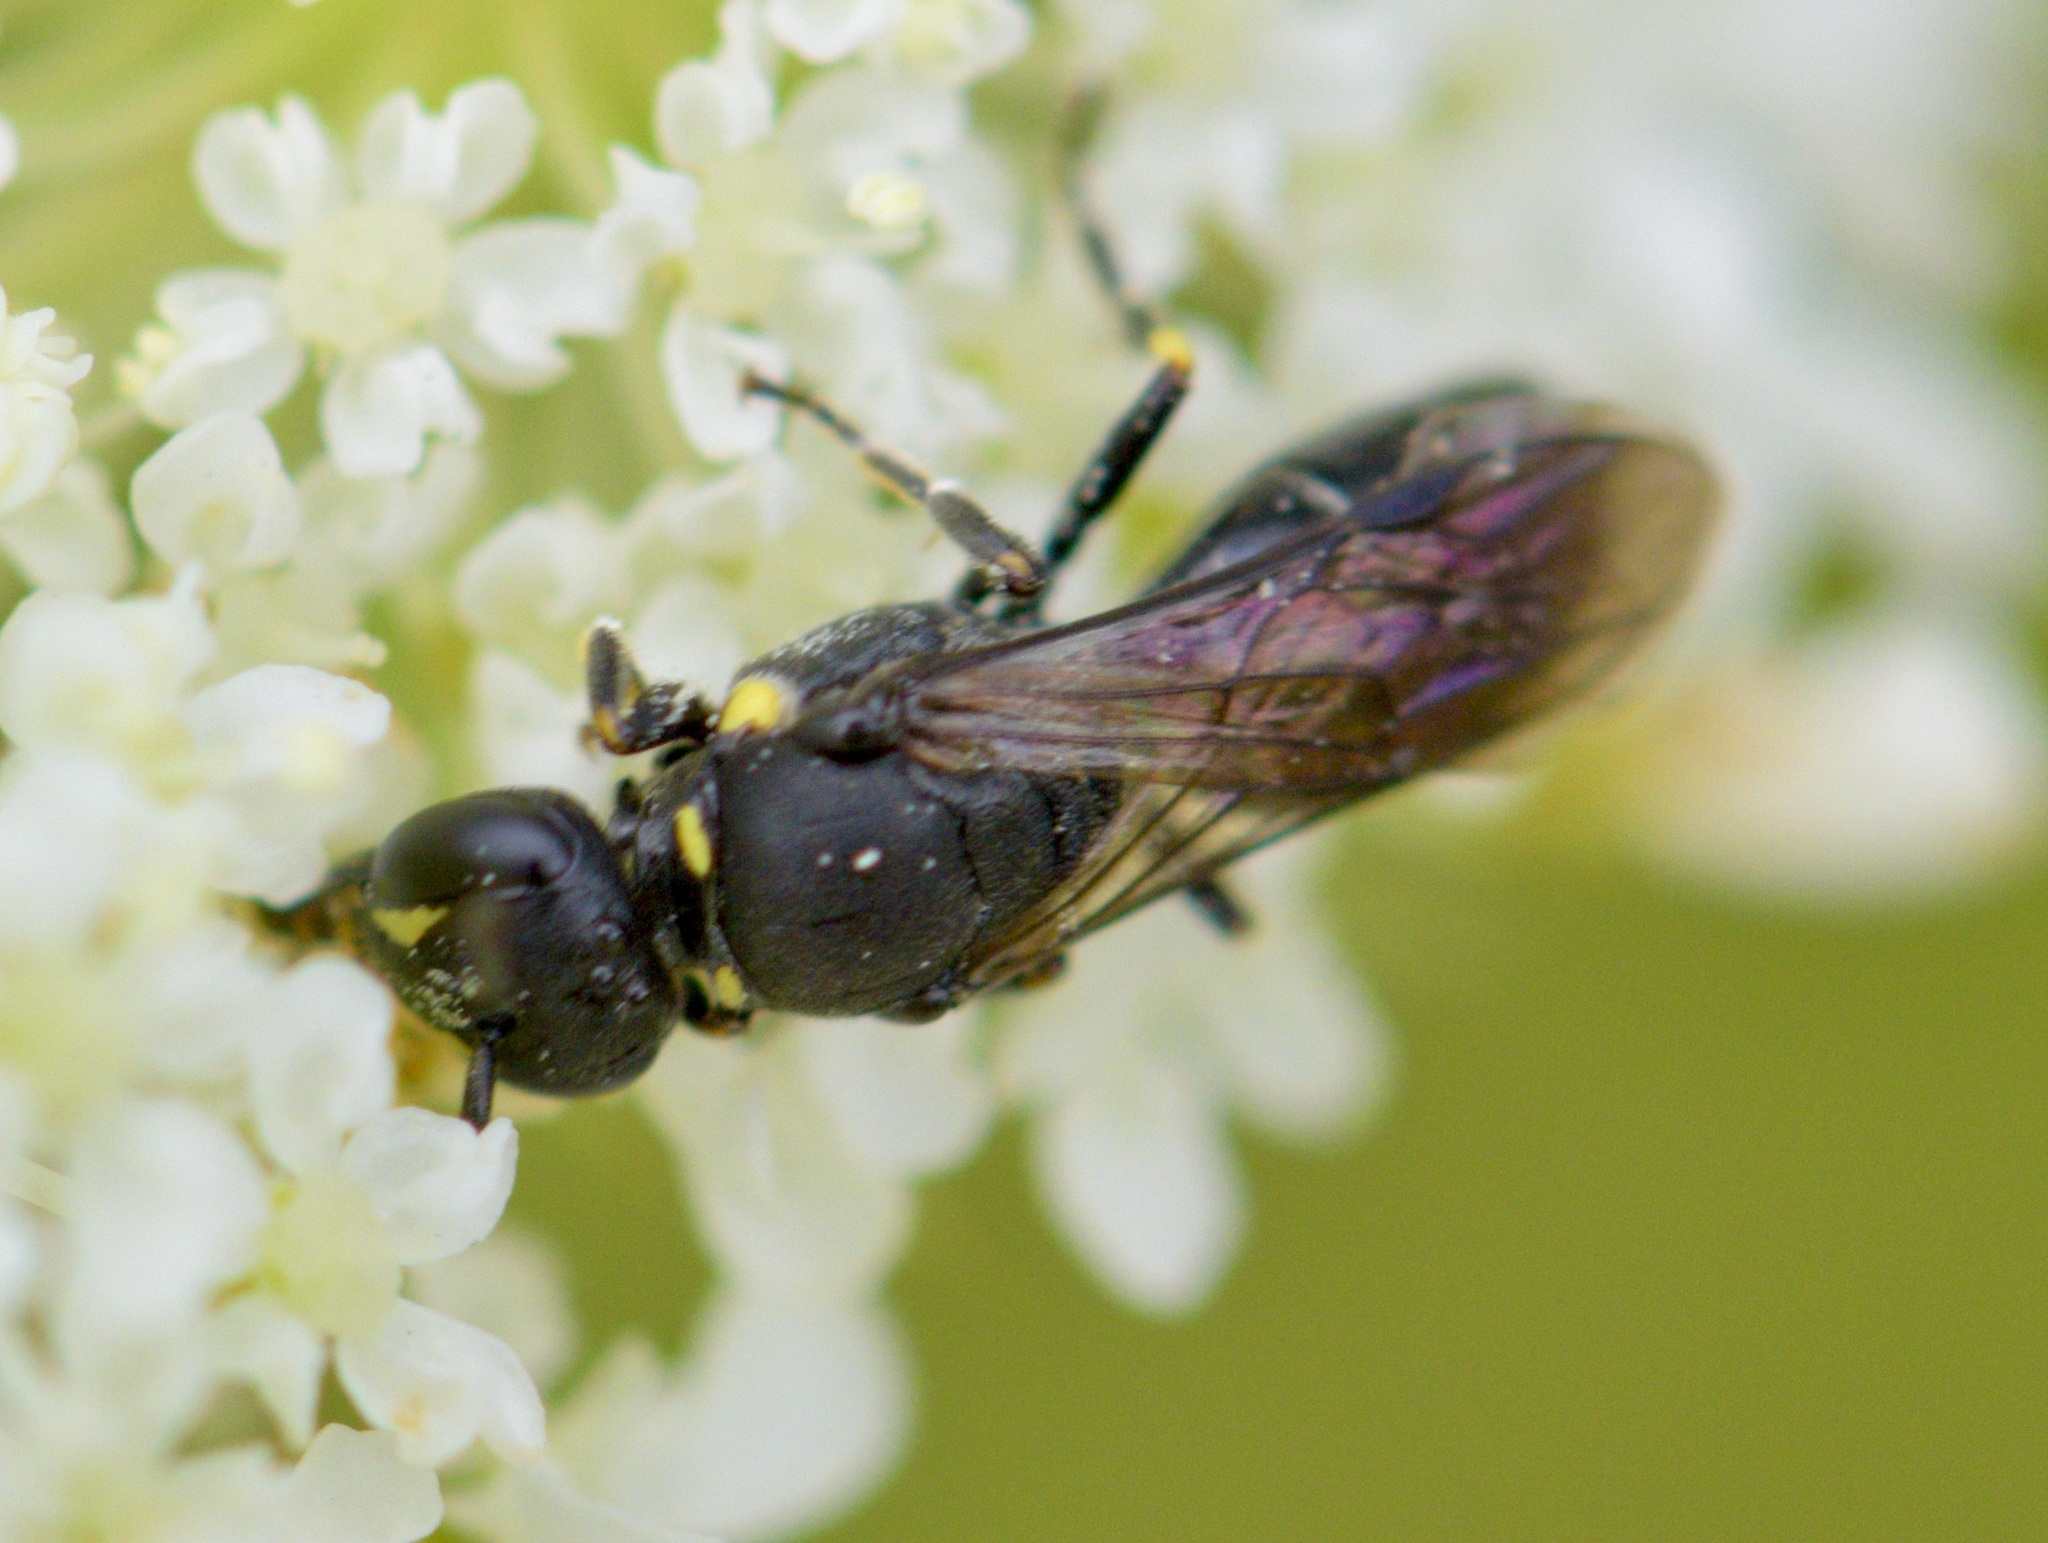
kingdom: Animalia
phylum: Arthropoda
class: Insecta
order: Hymenoptera
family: Colletidae
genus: Hylaeus
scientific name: Hylaeus modestus
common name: Yellow-faced bee
